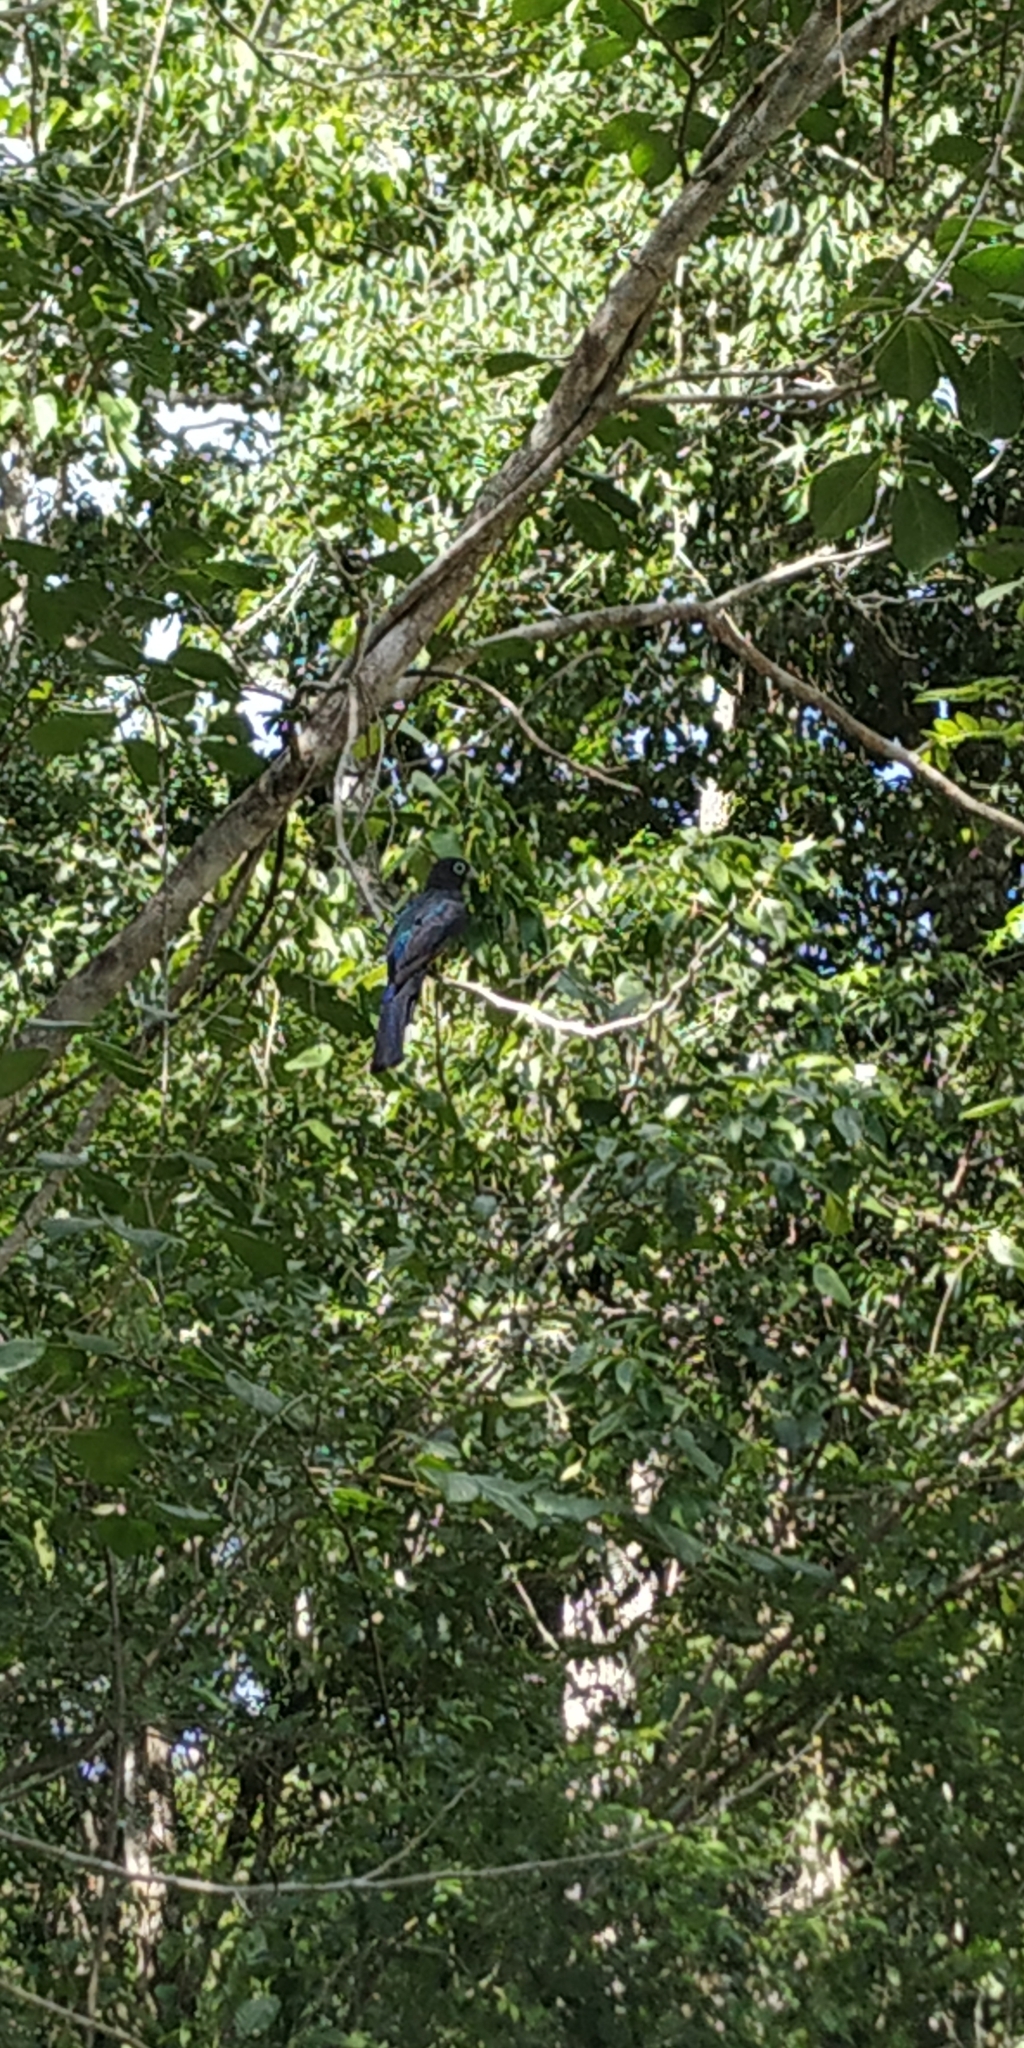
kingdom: Animalia
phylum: Chordata
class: Aves
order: Trogoniformes
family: Trogonidae
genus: Trogon
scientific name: Trogon melanocephalus
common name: Black-headed trogon
